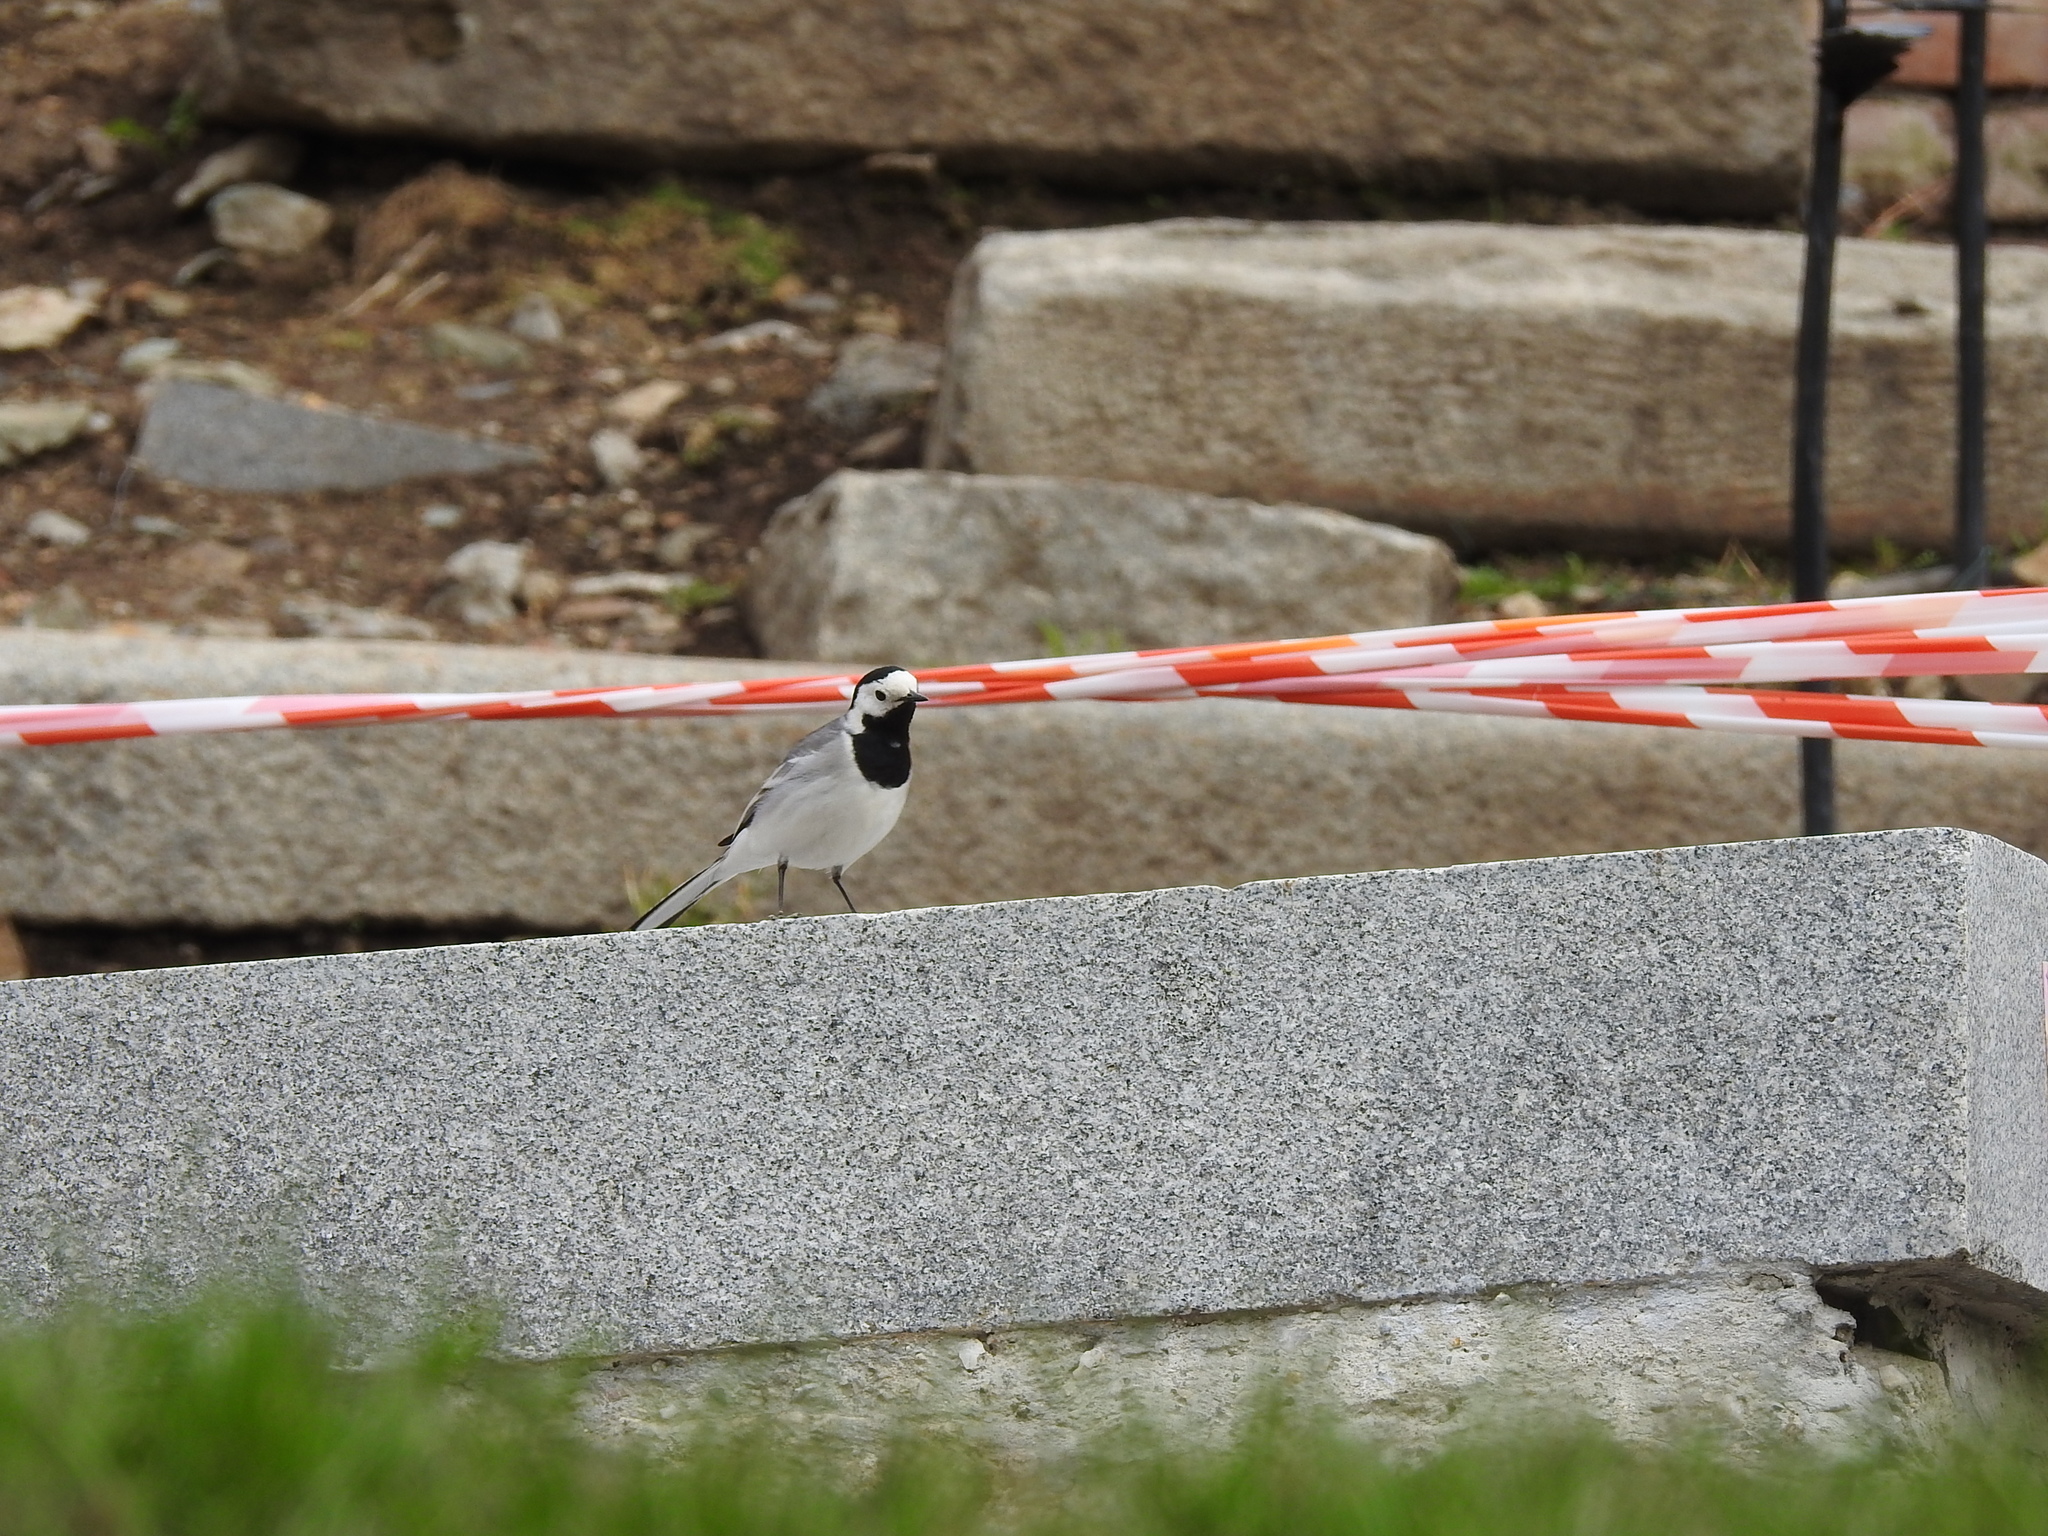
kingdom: Animalia
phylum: Chordata
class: Aves
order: Passeriformes
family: Motacillidae
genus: Motacilla
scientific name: Motacilla alba
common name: White wagtail
